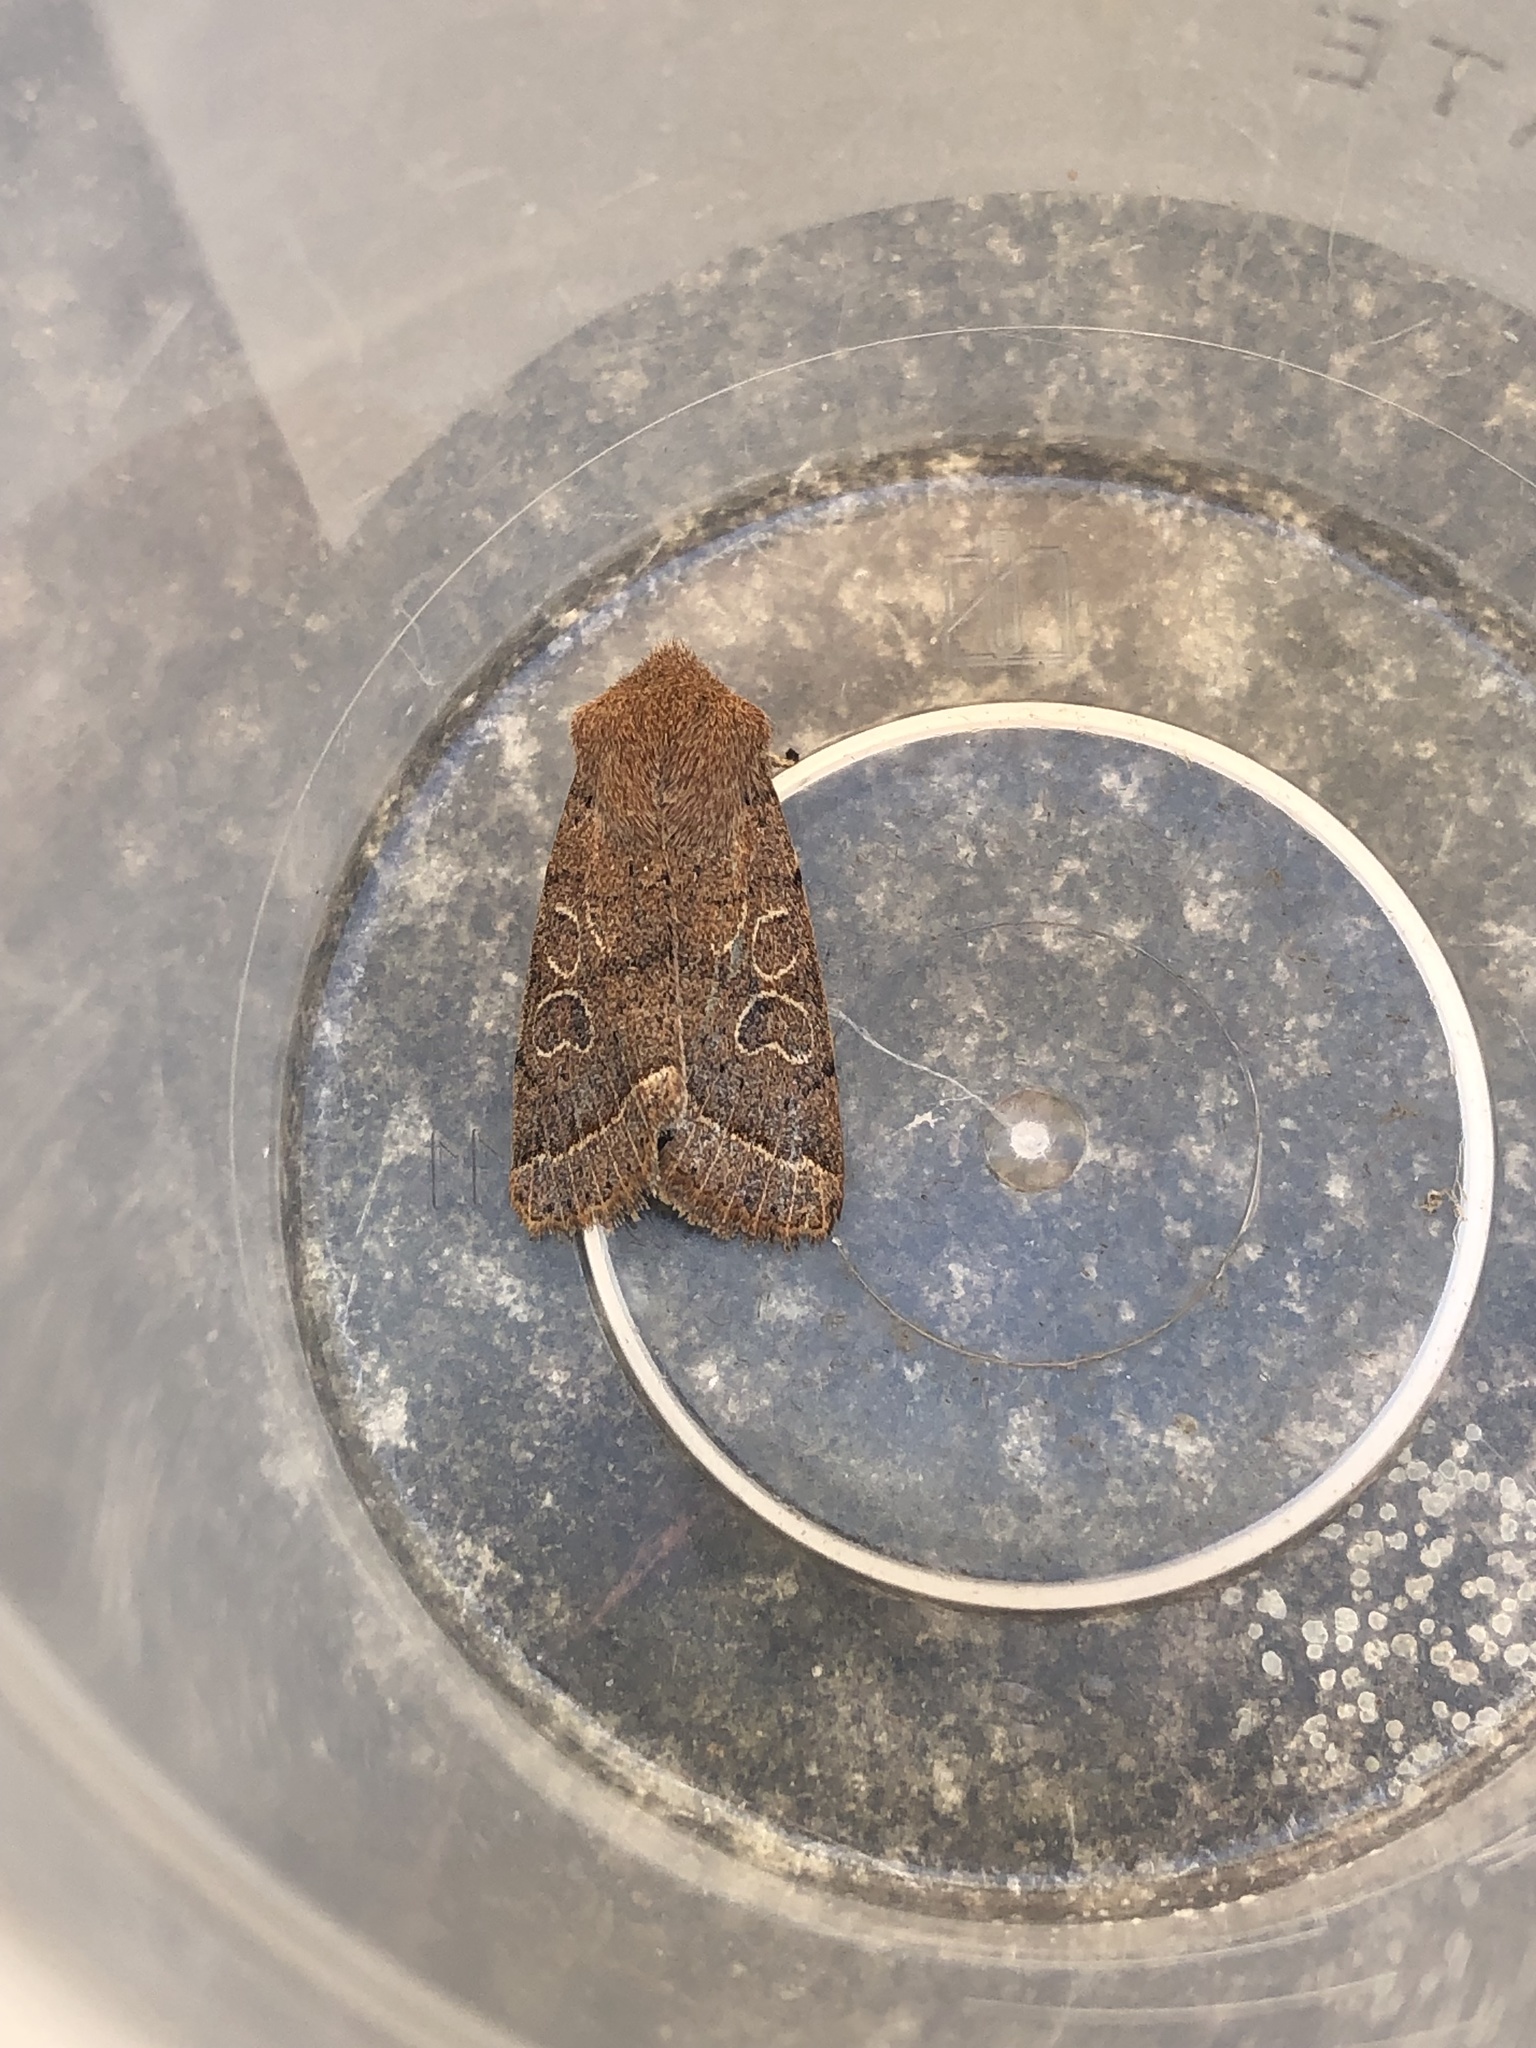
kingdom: Animalia
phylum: Arthropoda
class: Insecta
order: Lepidoptera
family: Noctuidae
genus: Orthosia
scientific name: Orthosia cerasi
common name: Common quaker
